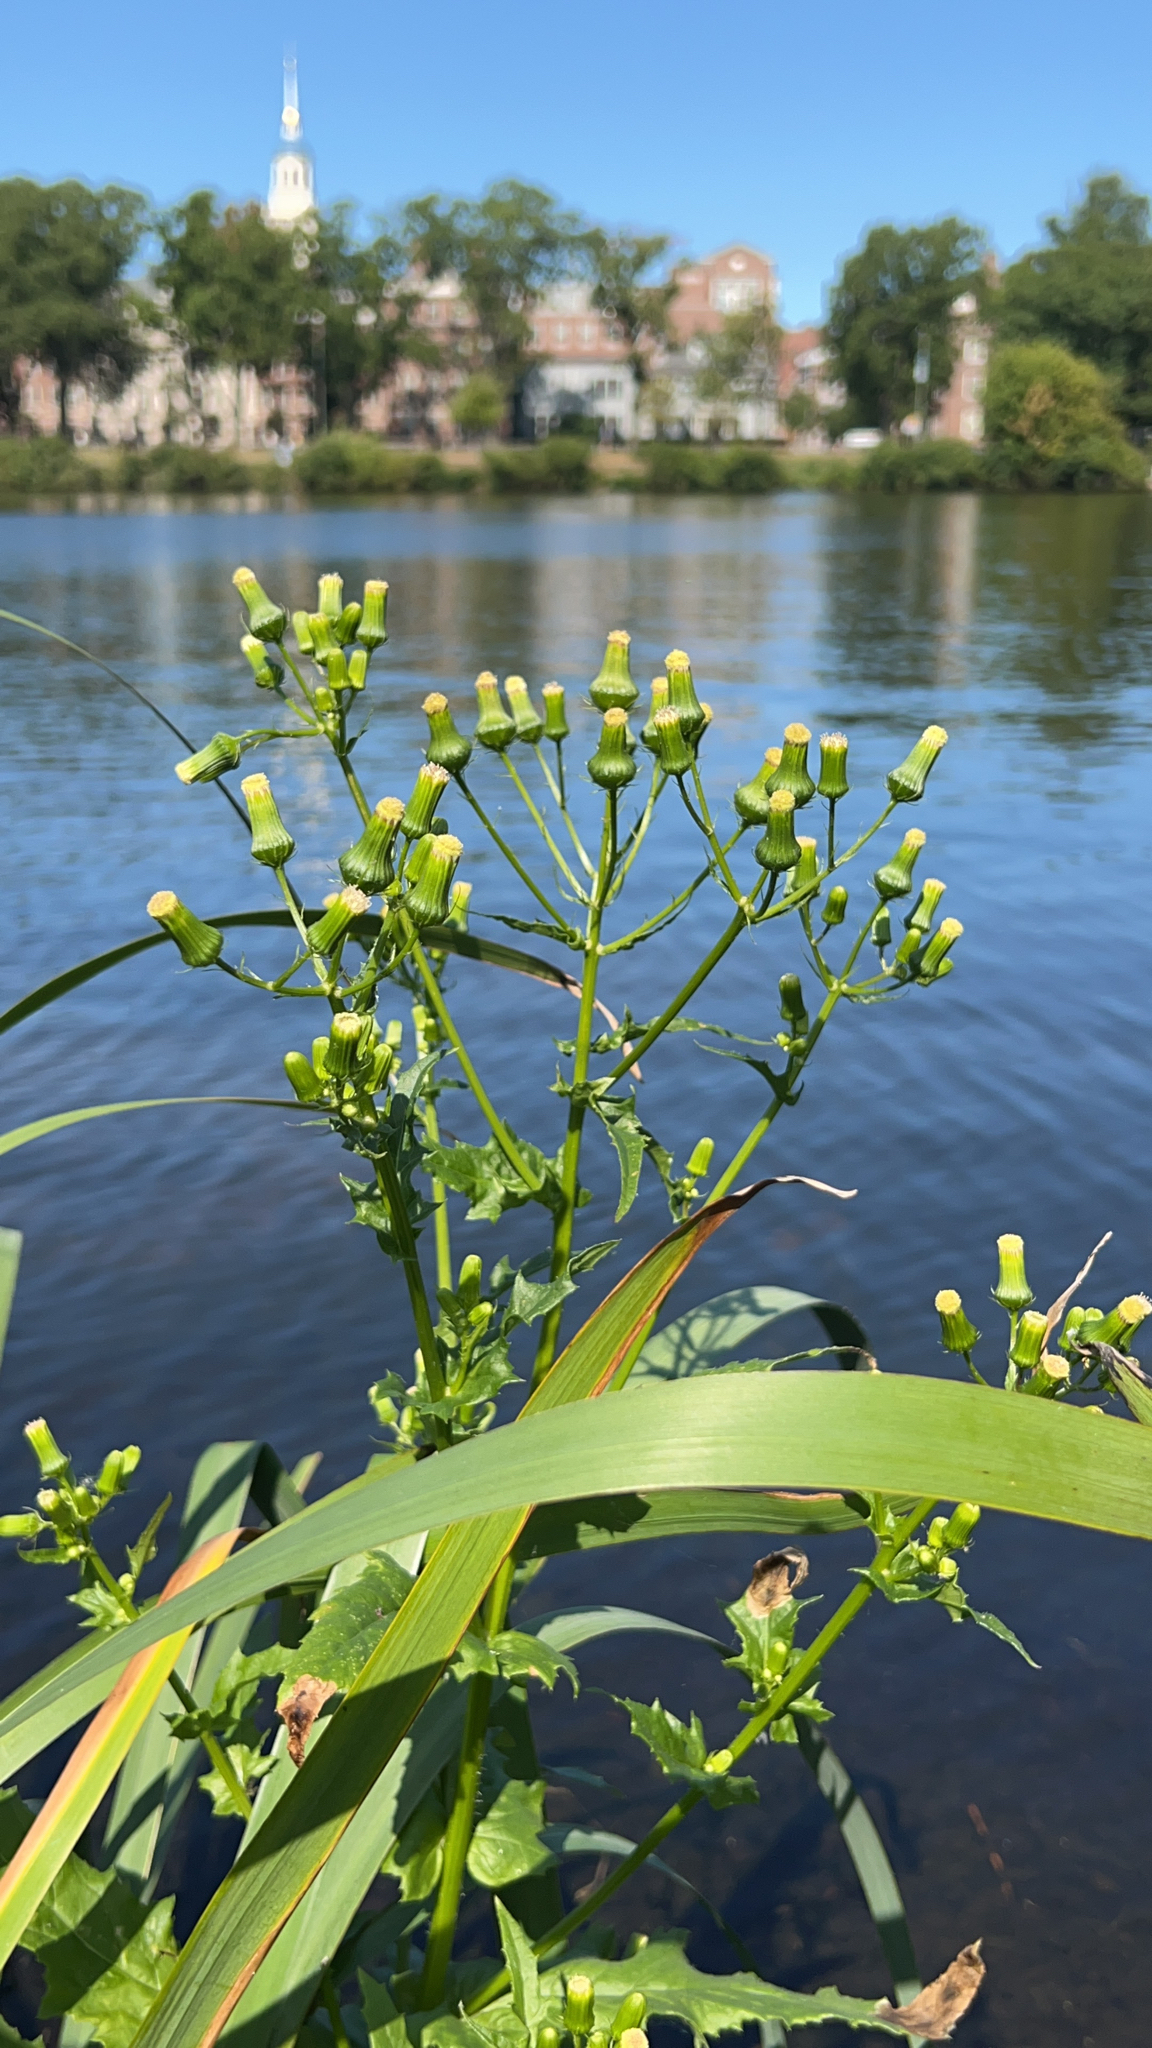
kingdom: Plantae
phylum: Tracheophyta
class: Magnoliopsida
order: Asterales
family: Asteraceae
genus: Erechtites
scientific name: Erechtites hieraciifolius
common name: American burnweed
